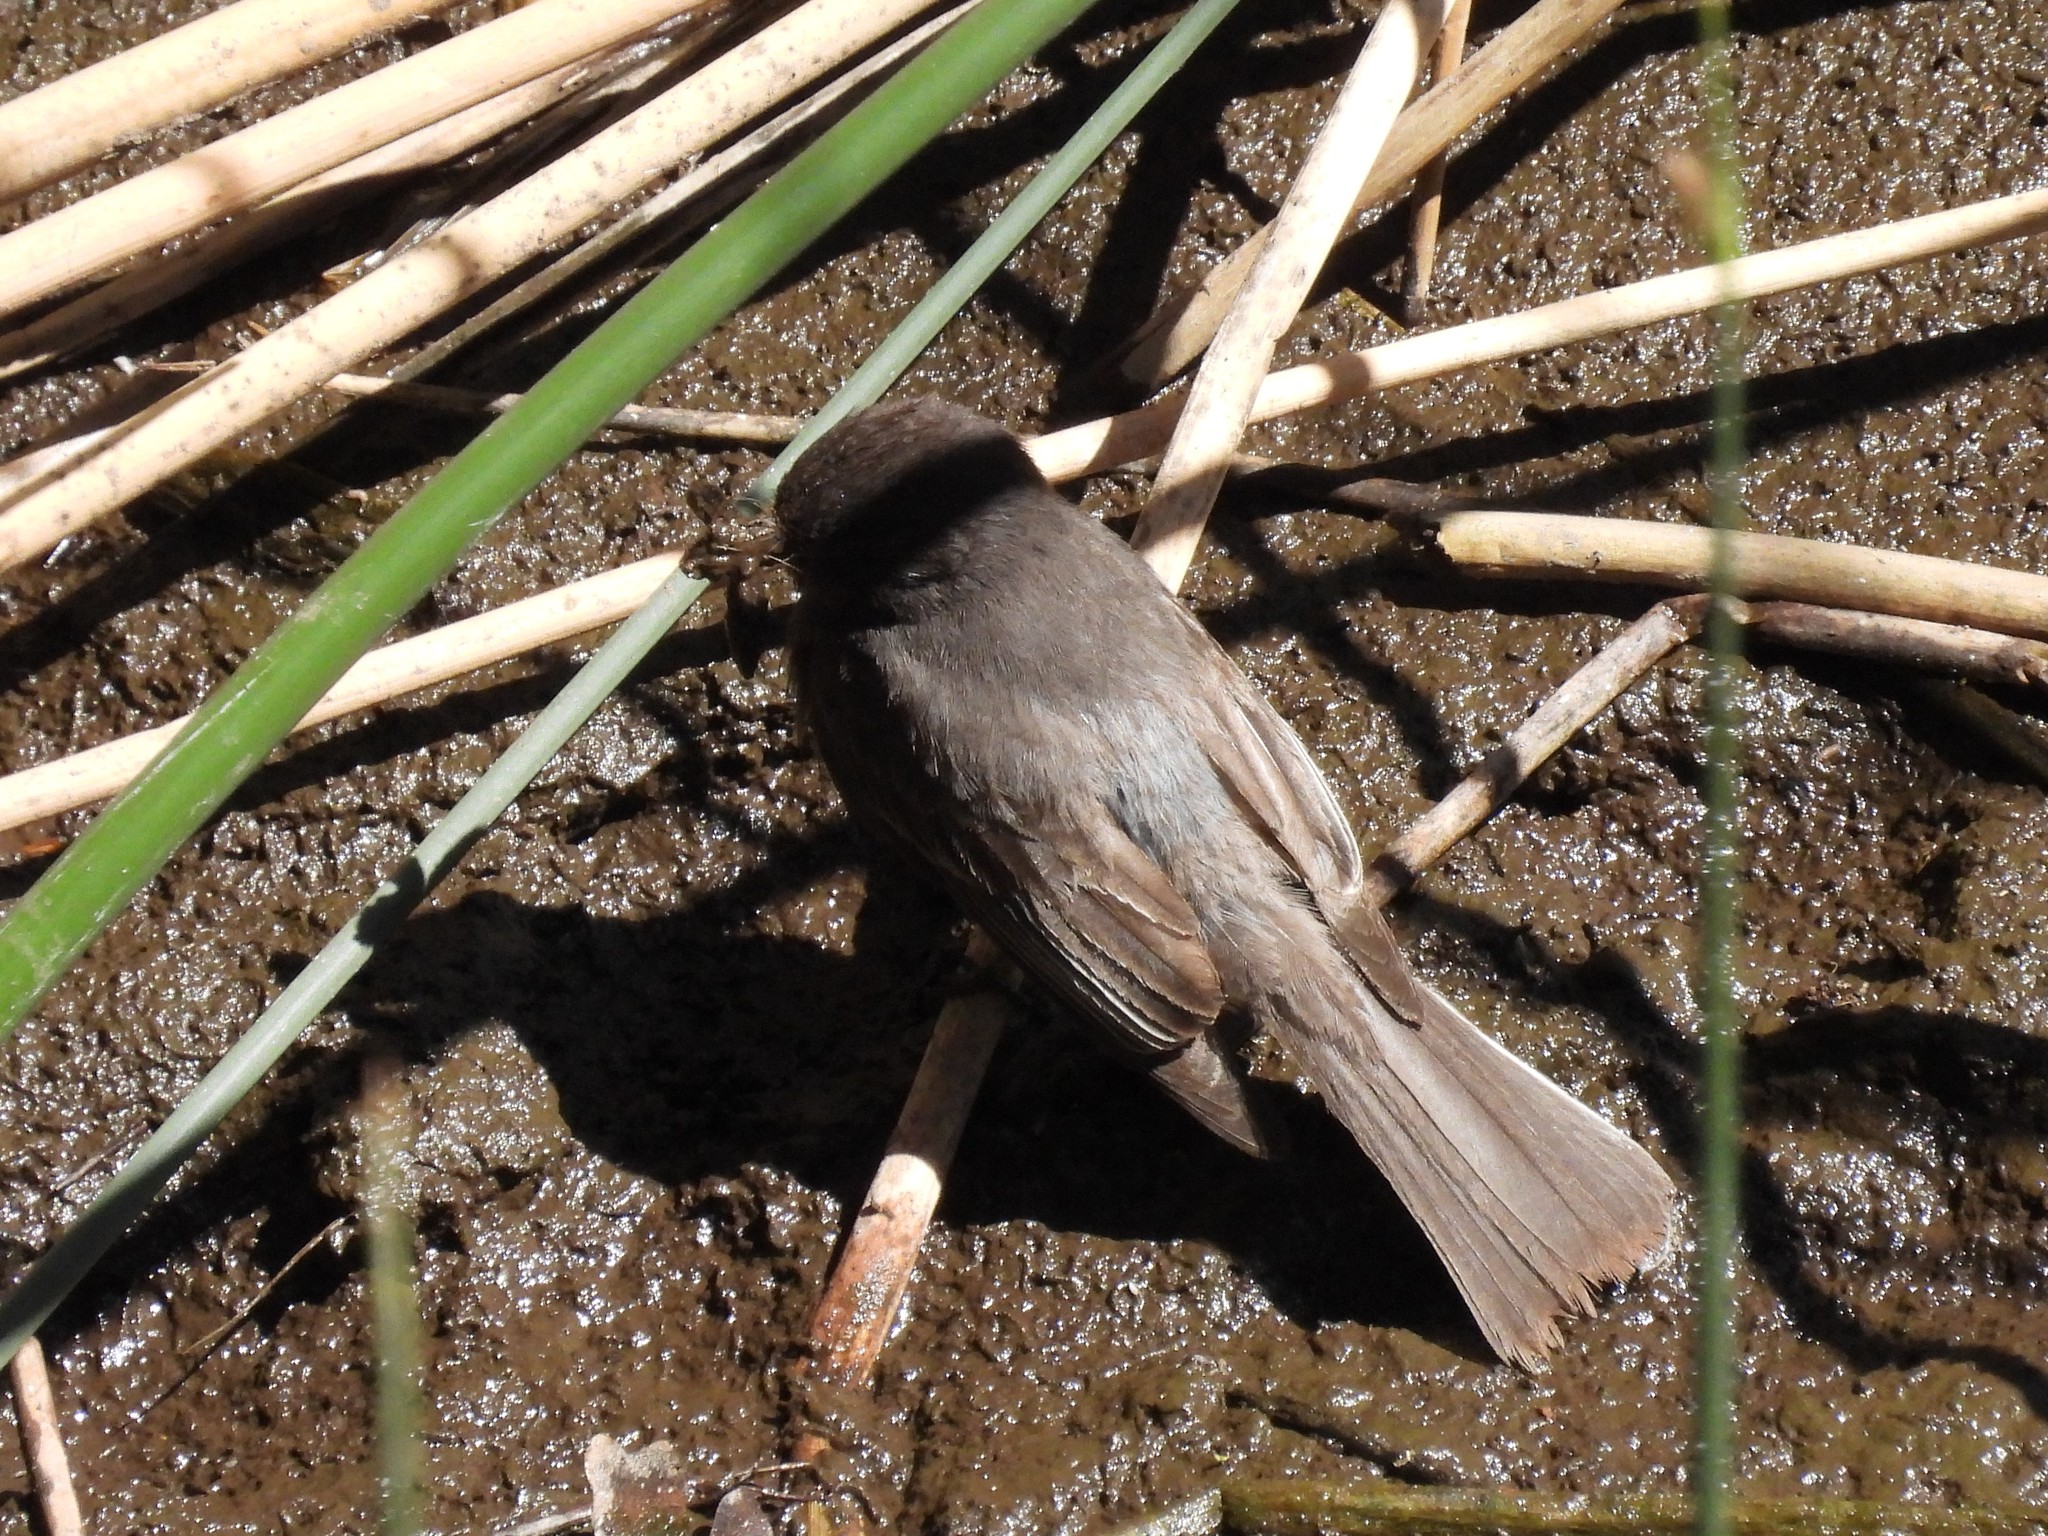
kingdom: Animalia
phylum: Chordata
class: Aves
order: Passeriformes
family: Tyrannidae
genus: Sayornis
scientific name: Sayornis nigricans
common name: Black phoebe
